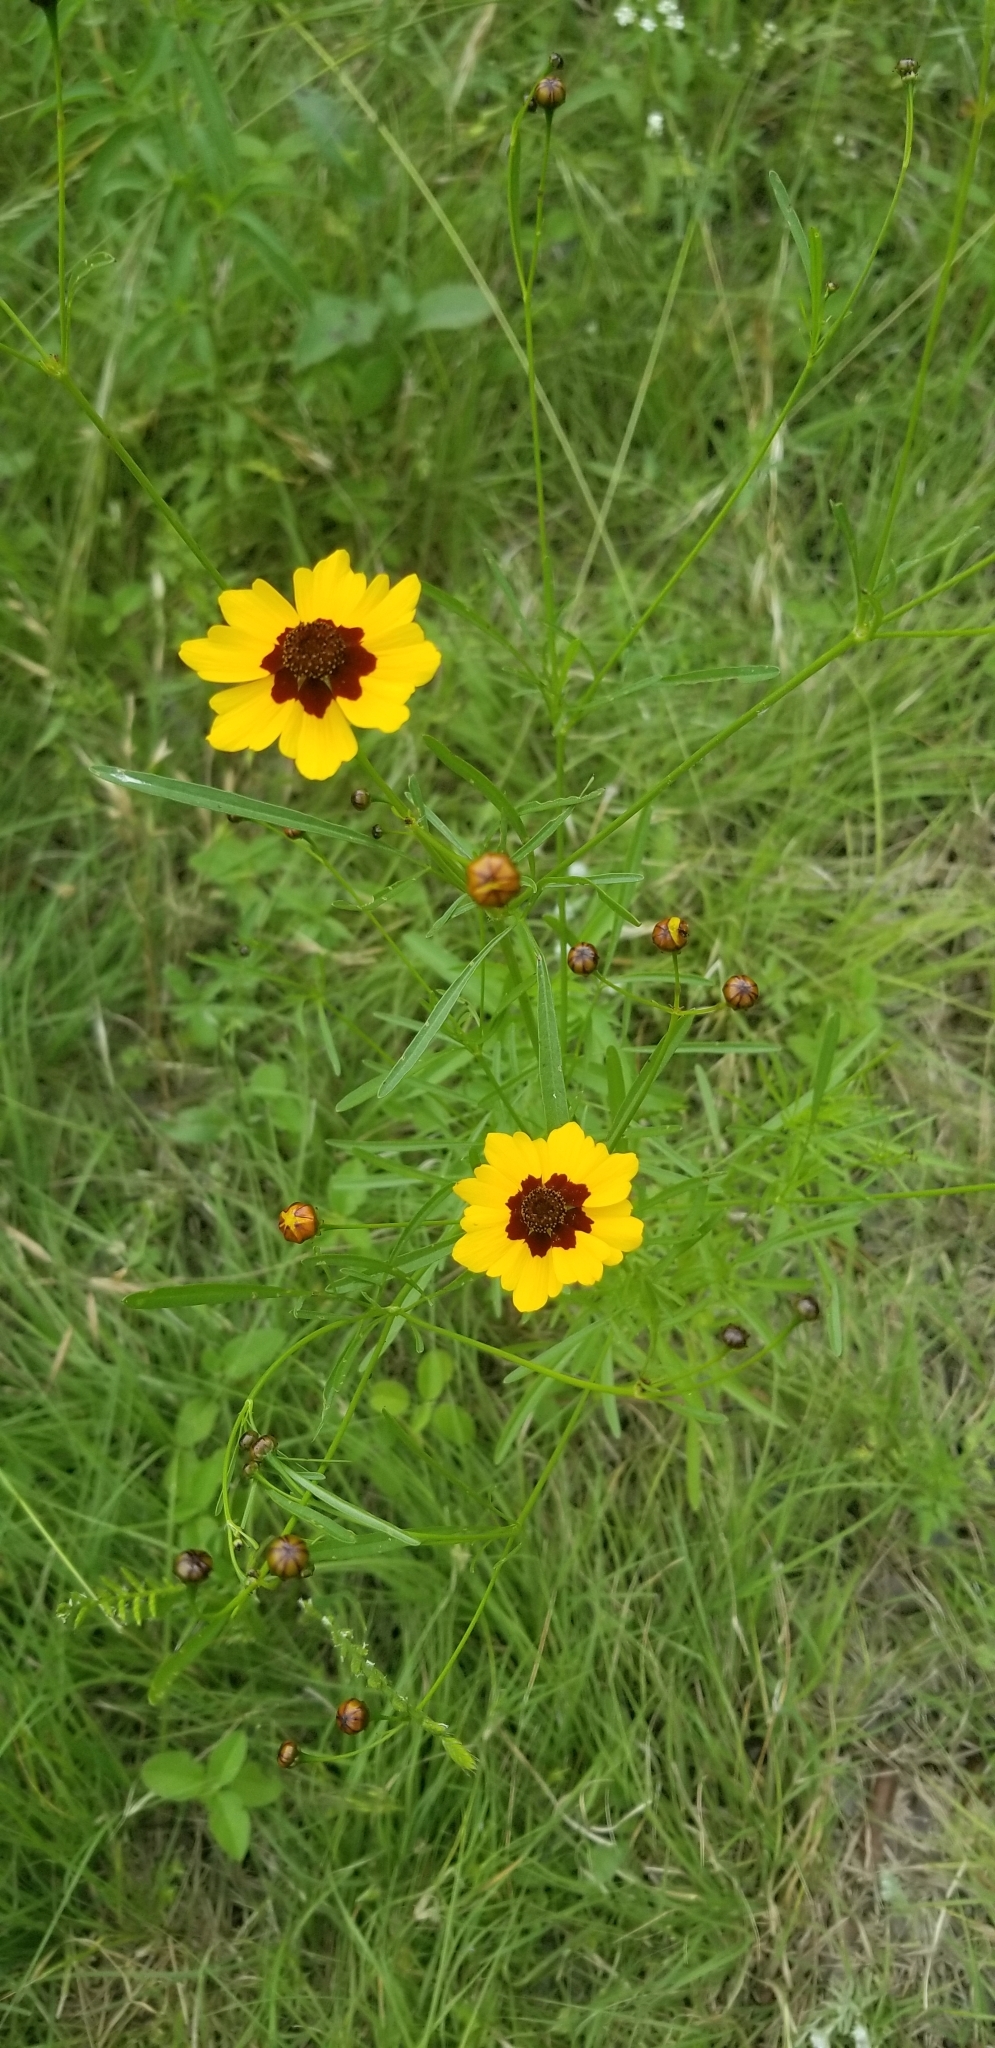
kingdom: Plantae
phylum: Tracheophyta
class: Magnoliopsida
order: Asterales
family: Asteraceae
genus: Coreopsis
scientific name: Coreopsis tinctoria
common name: Garden tickseed
